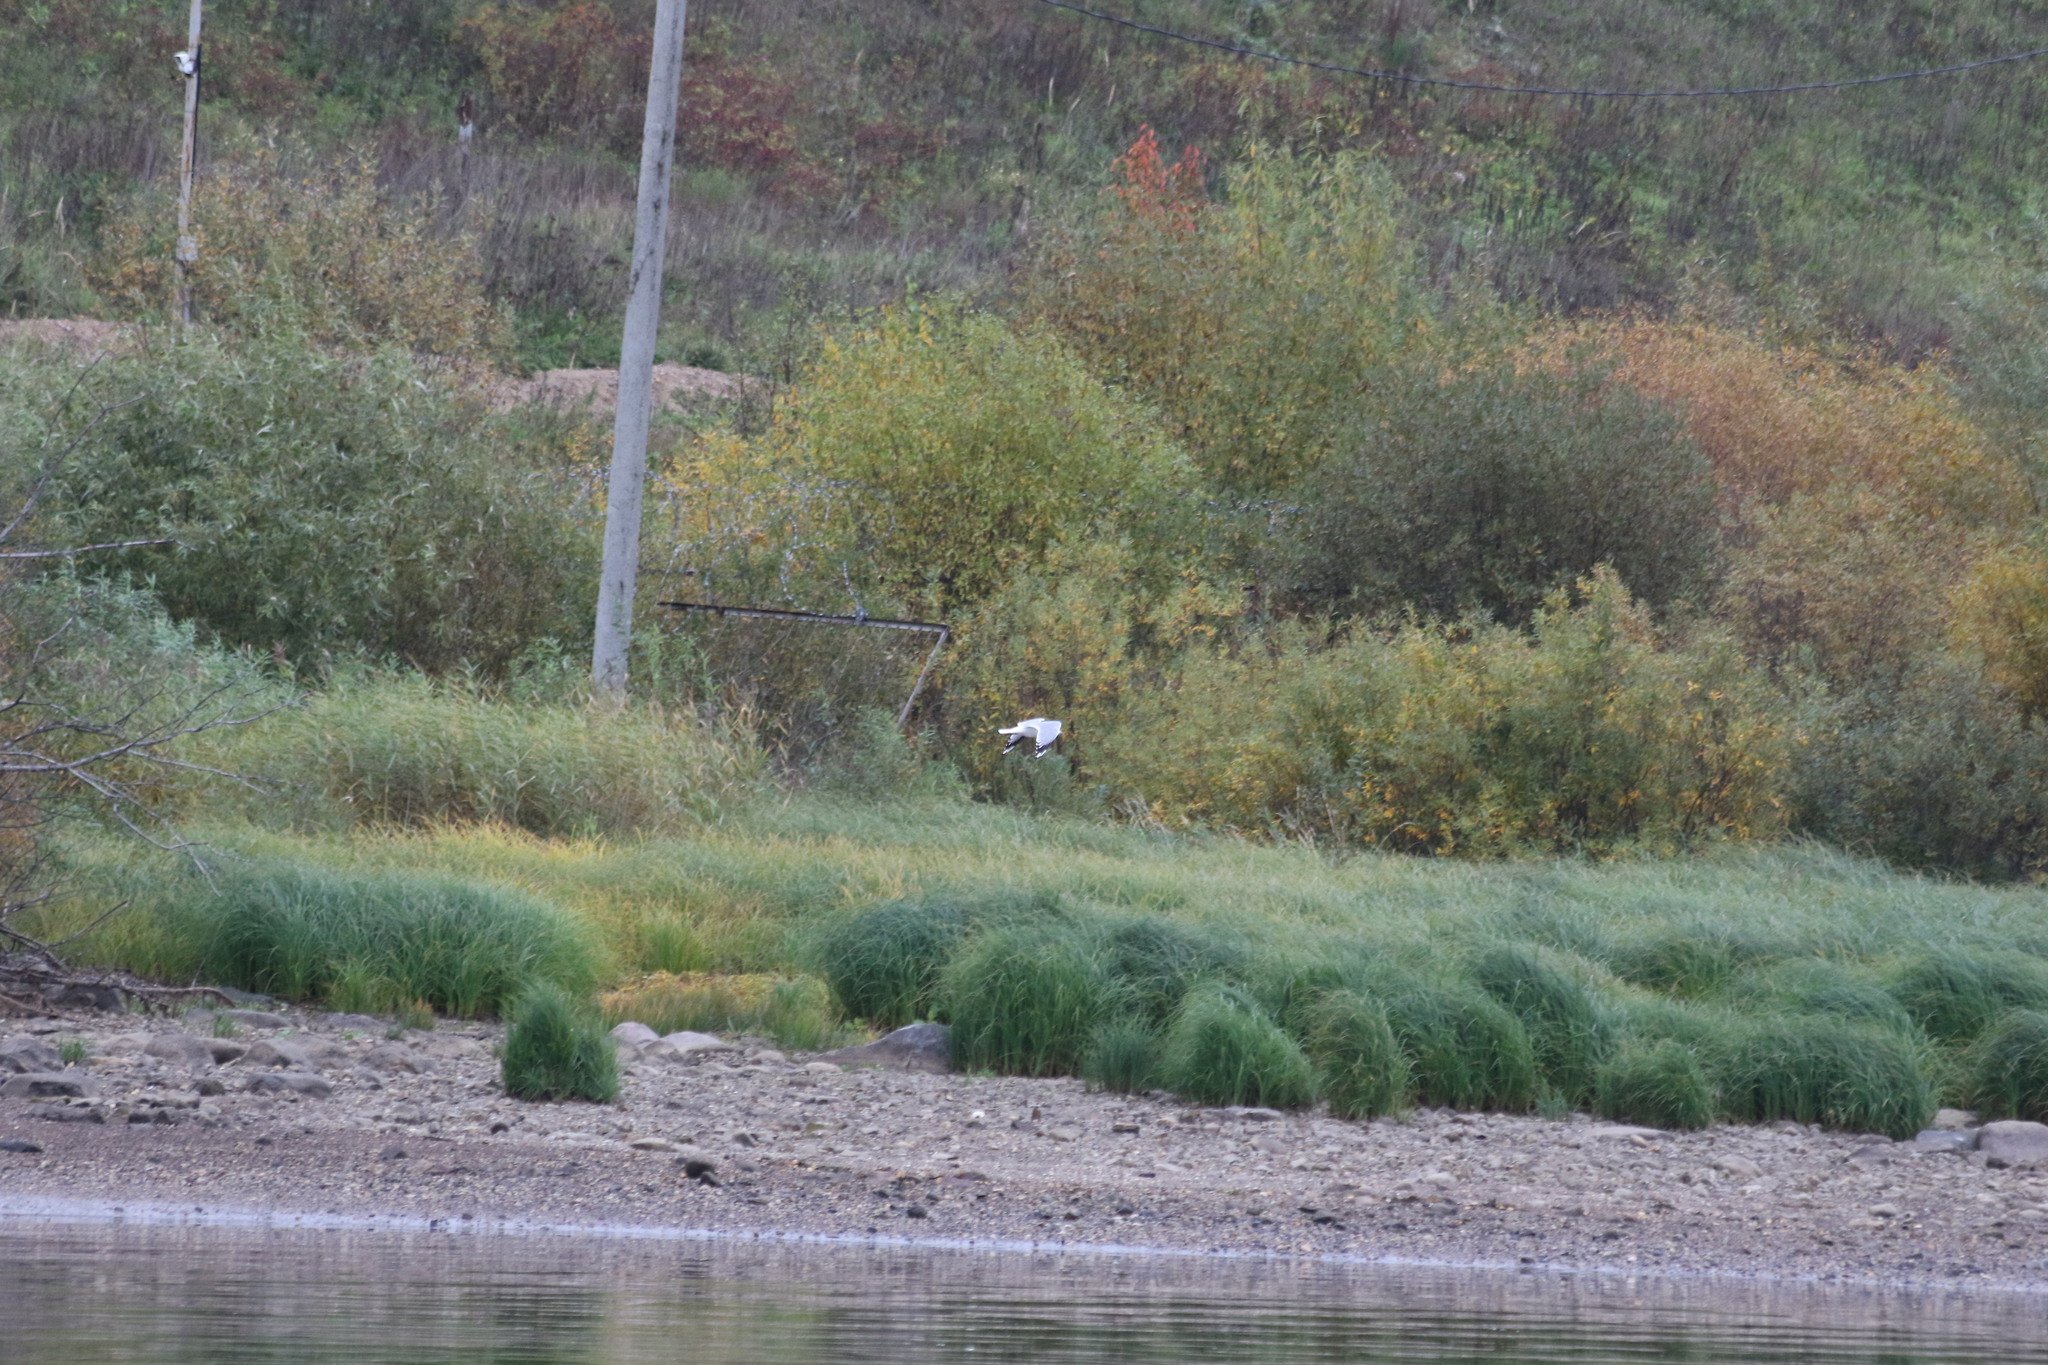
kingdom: Animalia
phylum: Chordata
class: Aves
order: Charadriiformes
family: Laridae
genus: Larus
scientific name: Larus canus
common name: Mew gull
